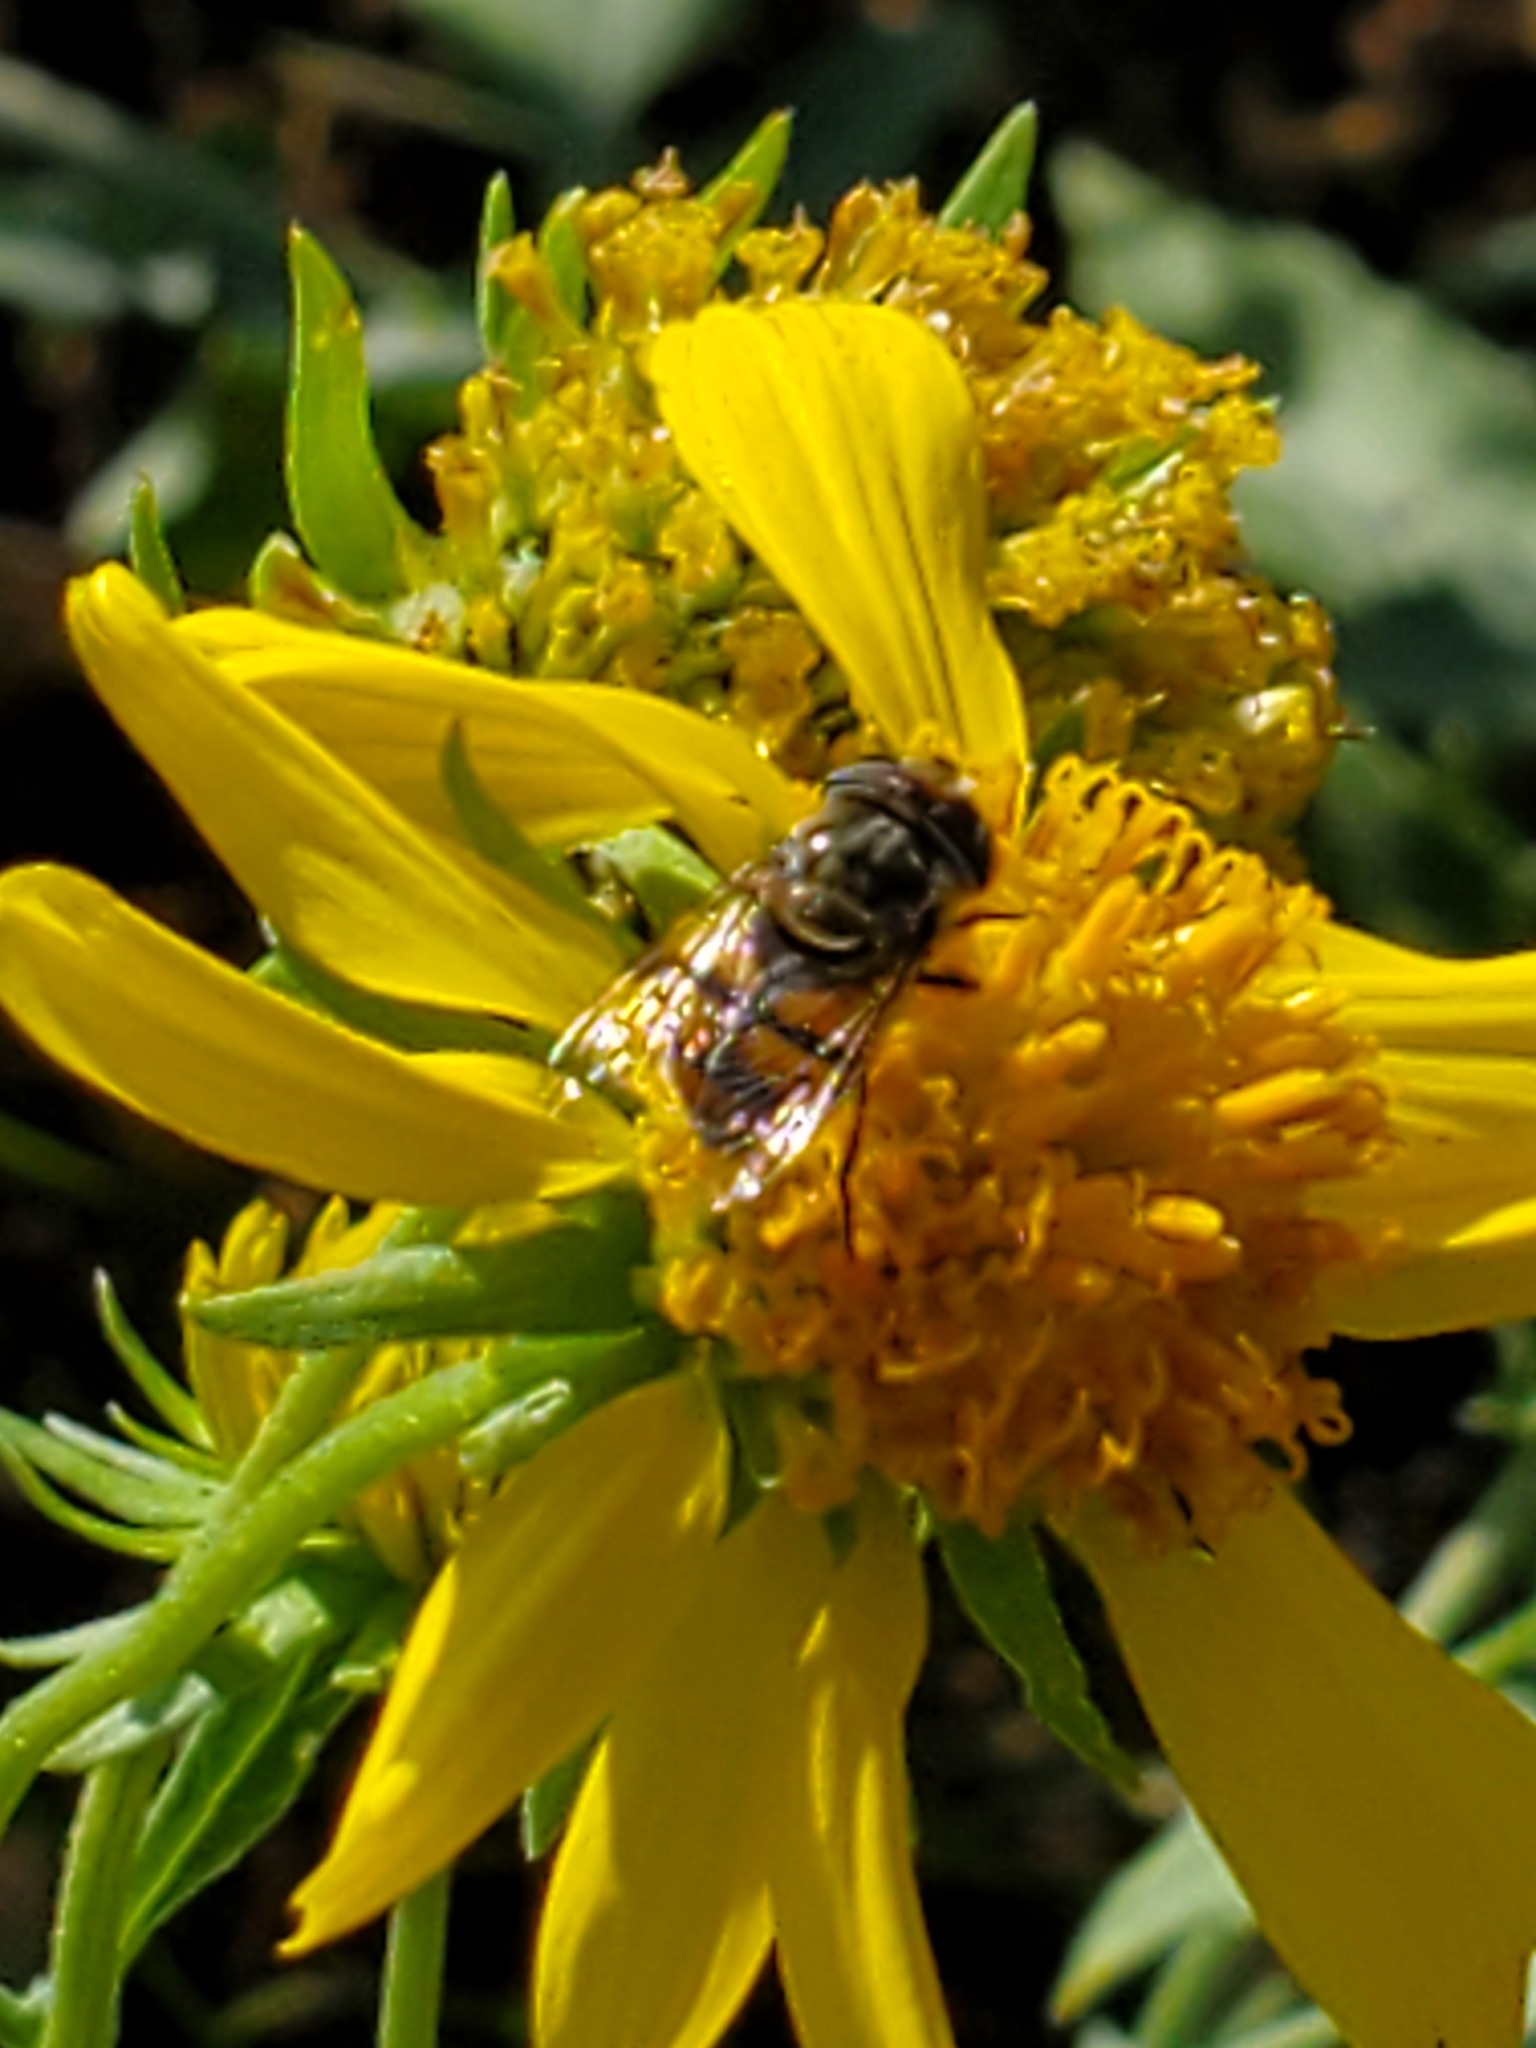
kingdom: Animalia
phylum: Arthropoda
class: Insecta
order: Diptera
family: Syrphidae
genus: Copestylum
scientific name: Copestylum avidum
